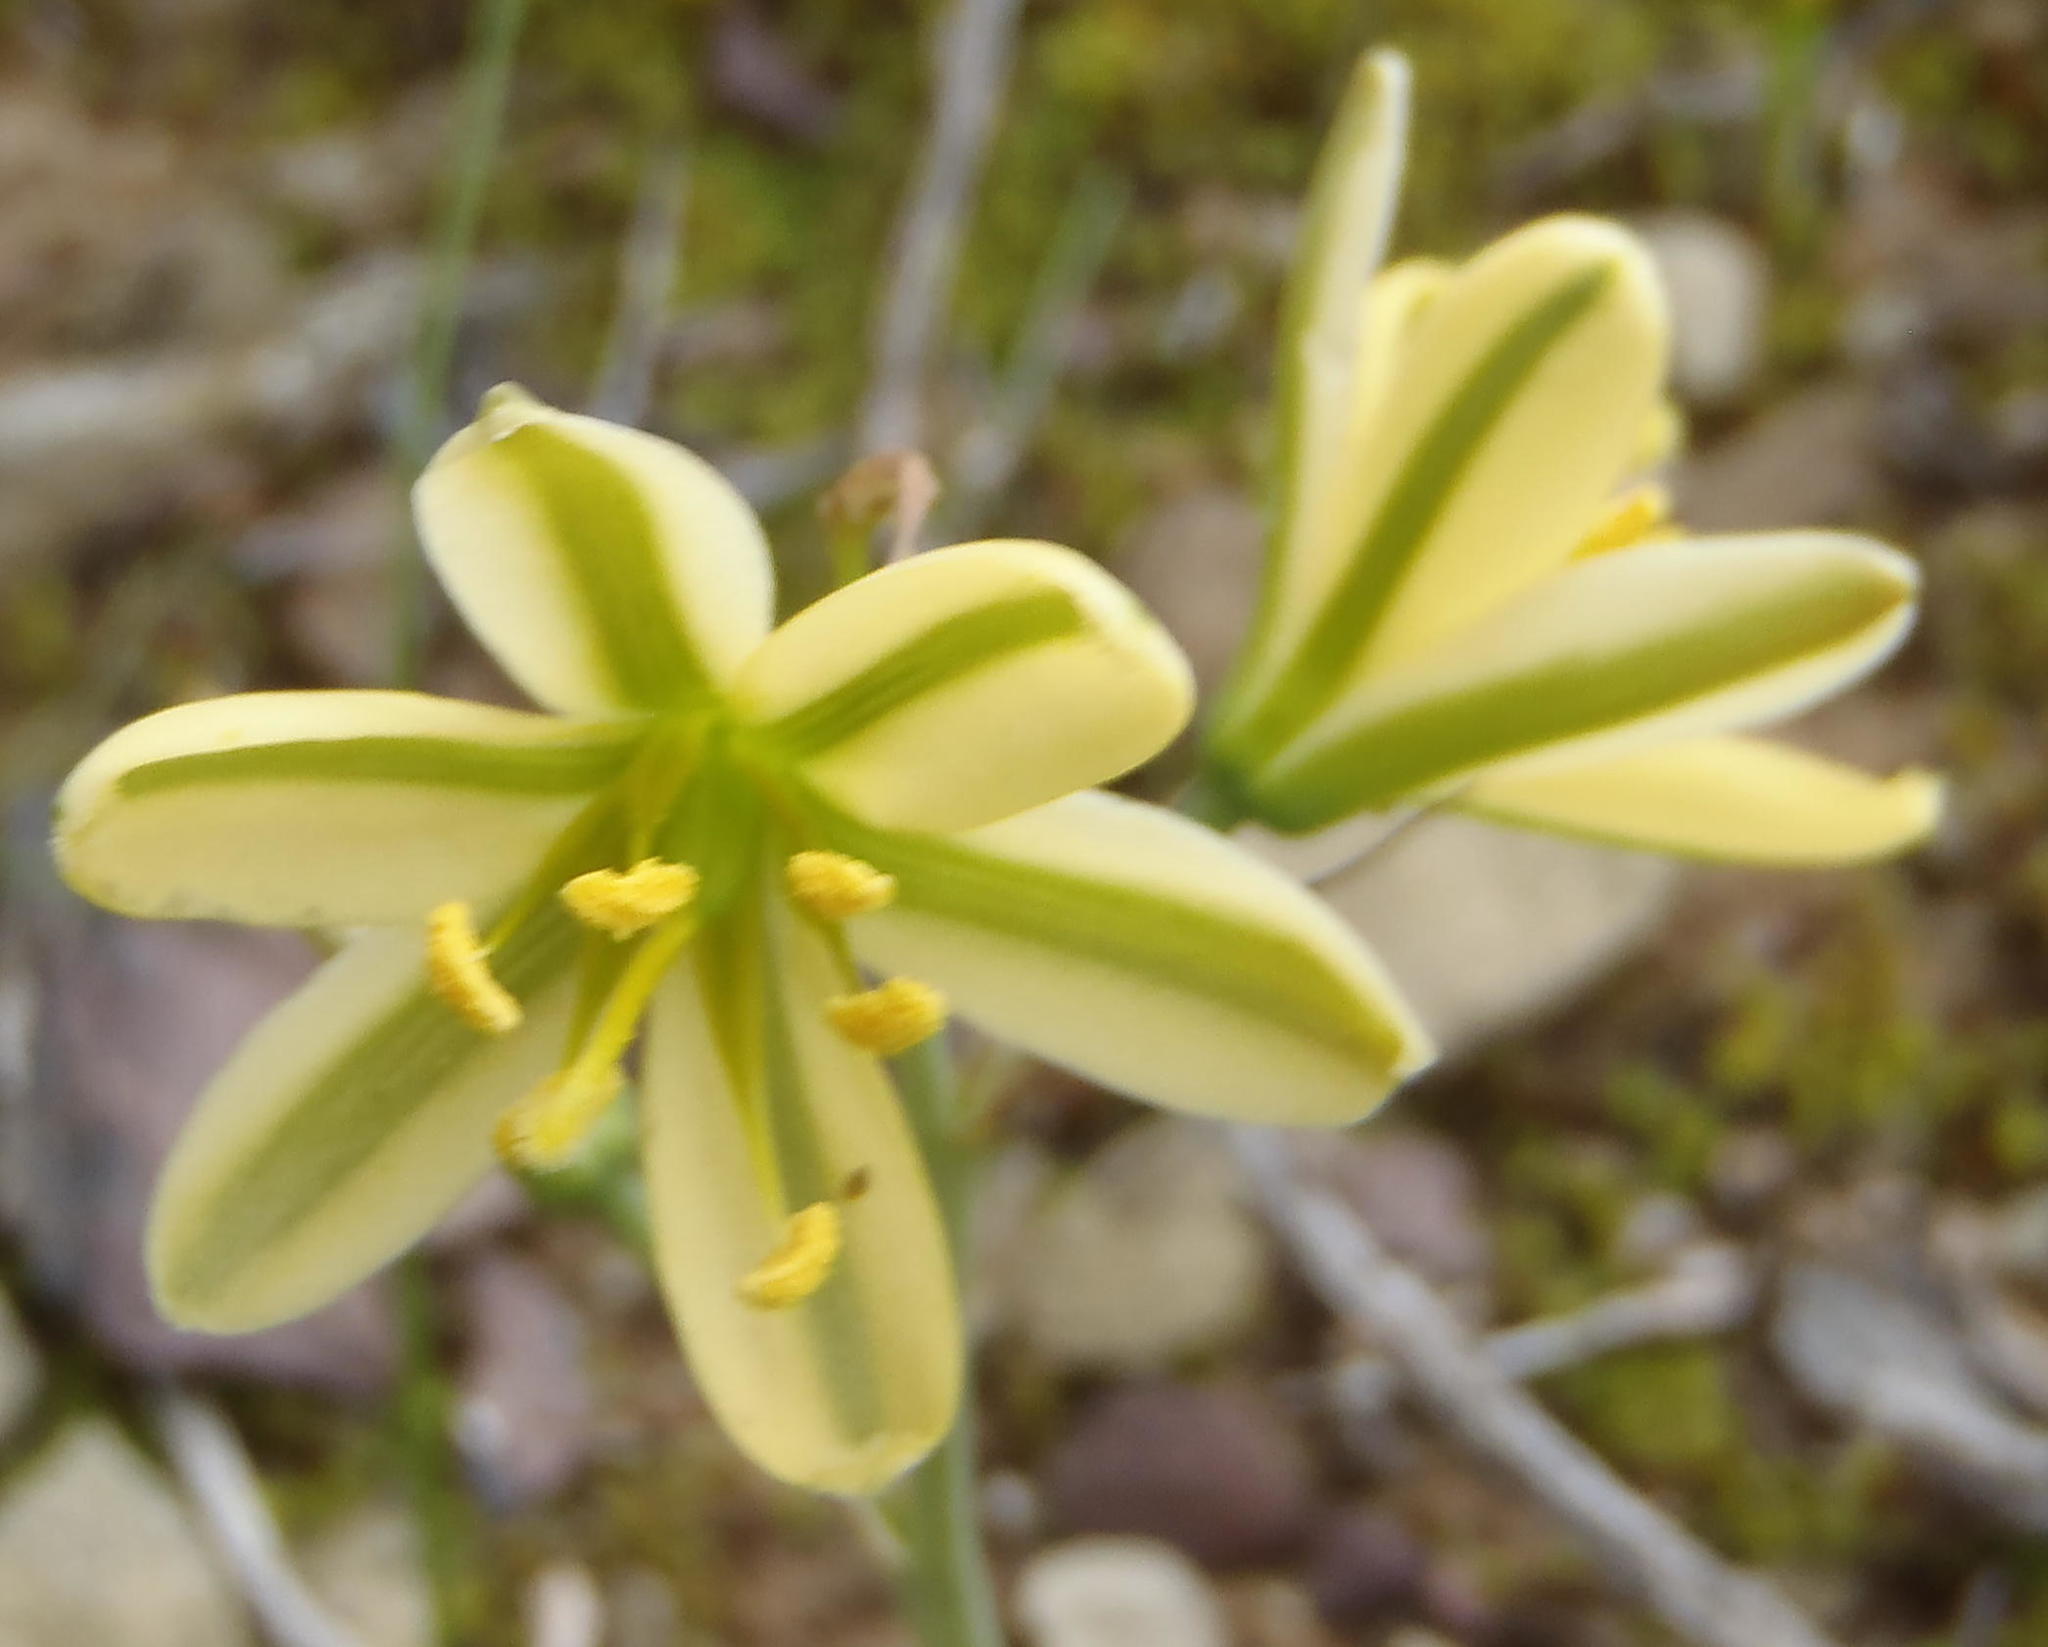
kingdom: Plantae
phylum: Tracheophyta
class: Liliopsida
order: Asparagales
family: Asparagaceae
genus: Albuca
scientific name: Albuca concordiana
